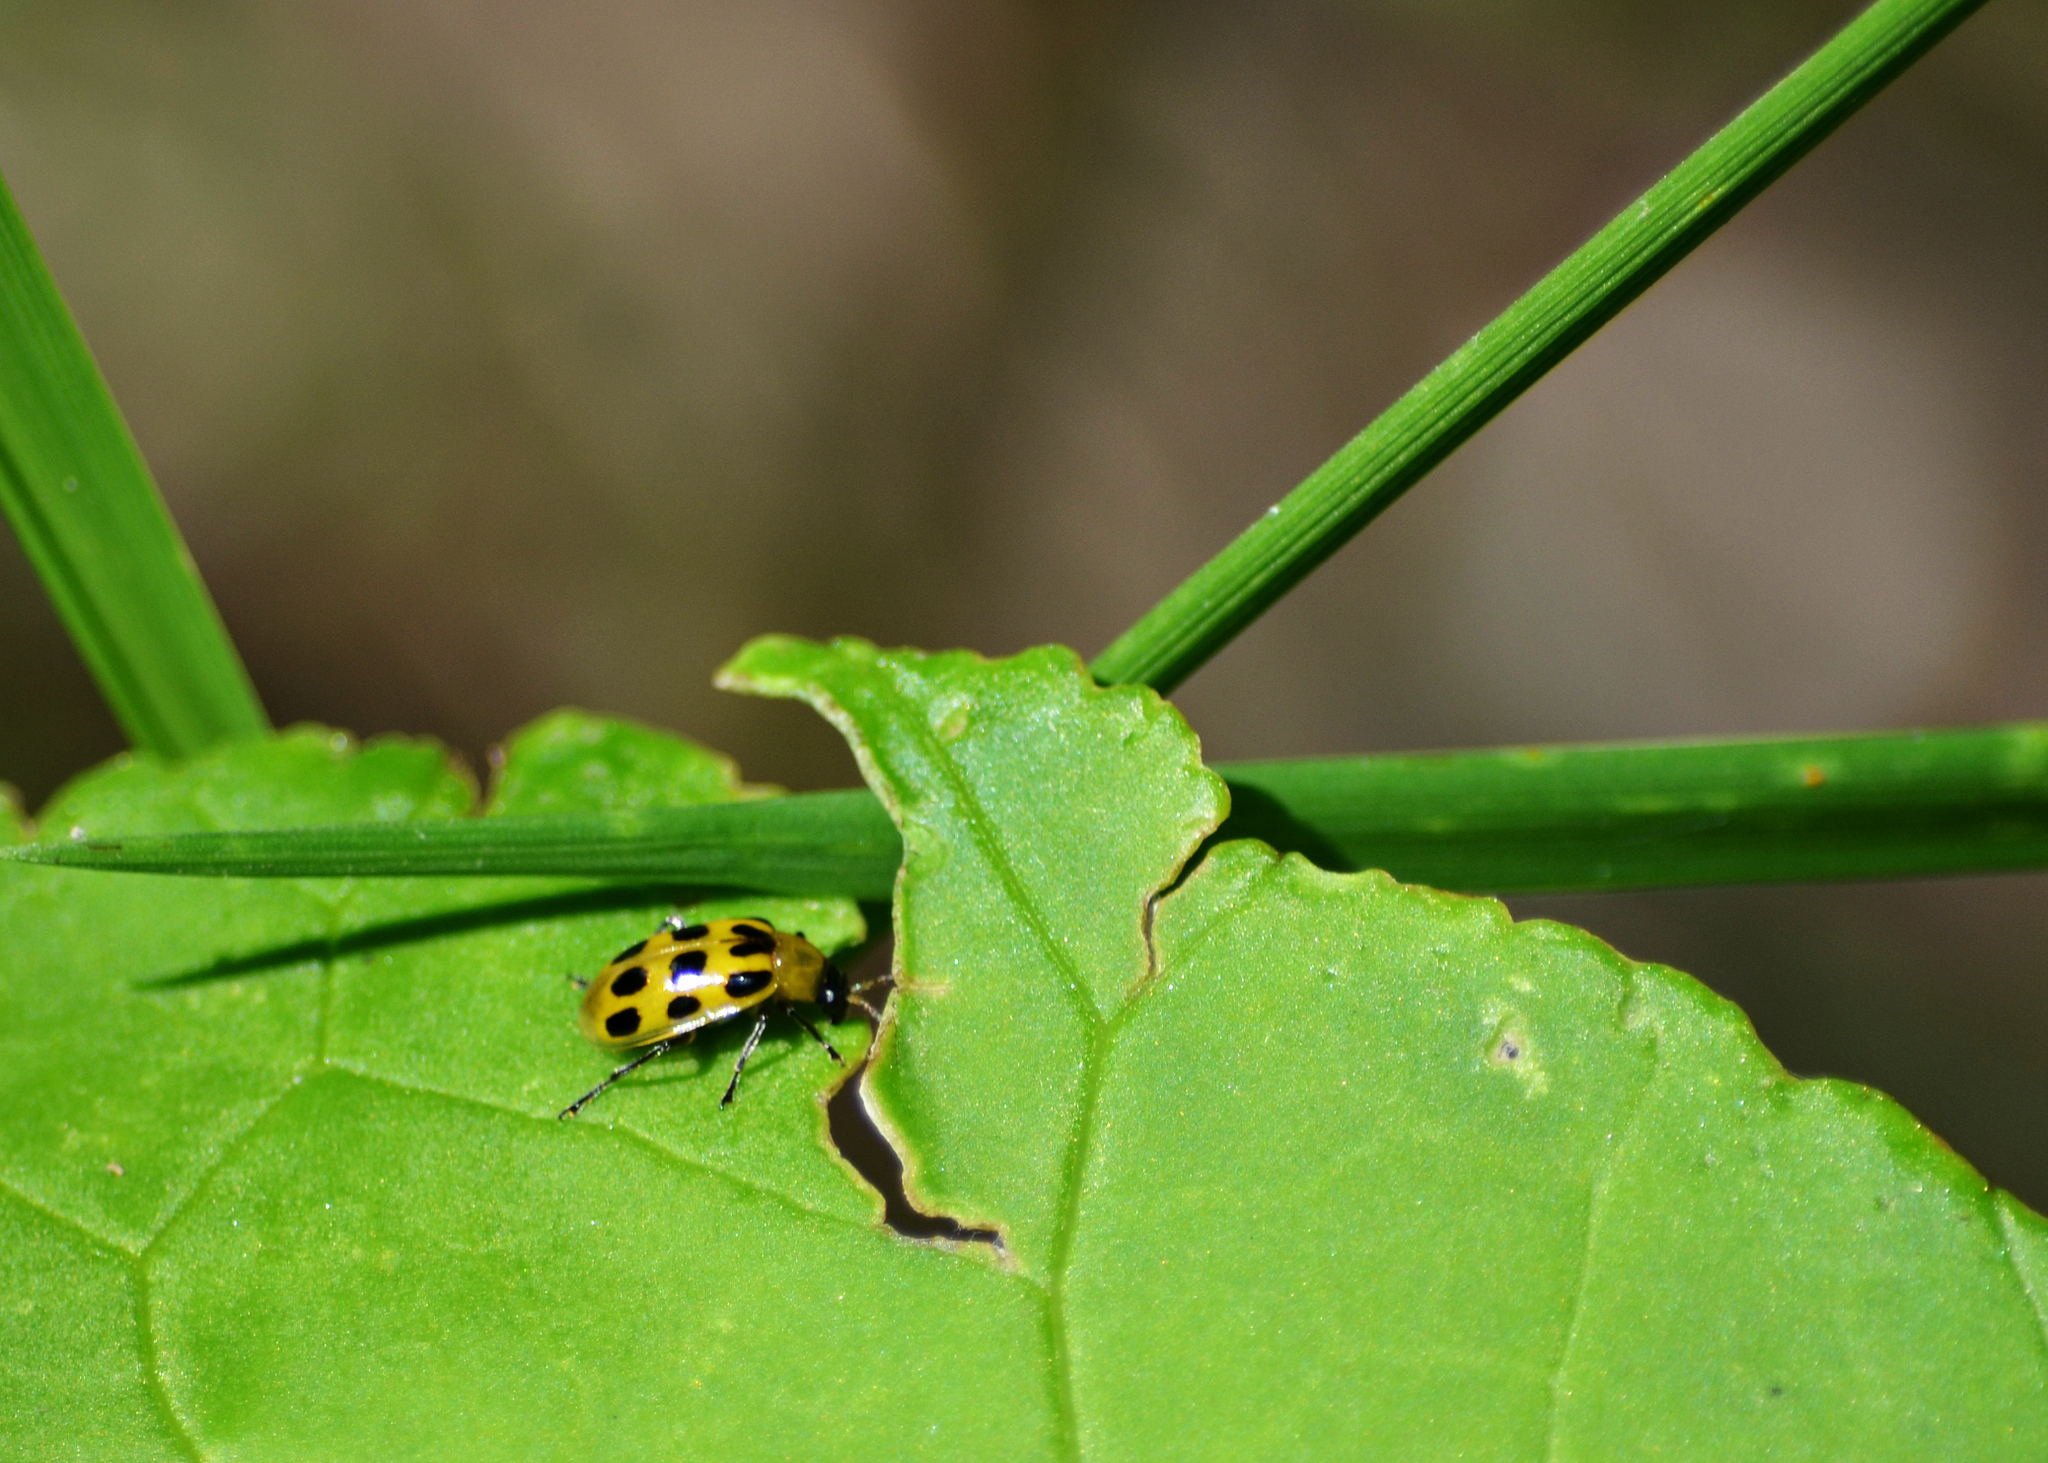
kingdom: Animalia
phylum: Arthropoda
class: Insecta
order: Coleoptera
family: Chrysomelidae
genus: Diabrotica
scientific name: Diabrotica undecimpunctata
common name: Spotted cucumber beetle
